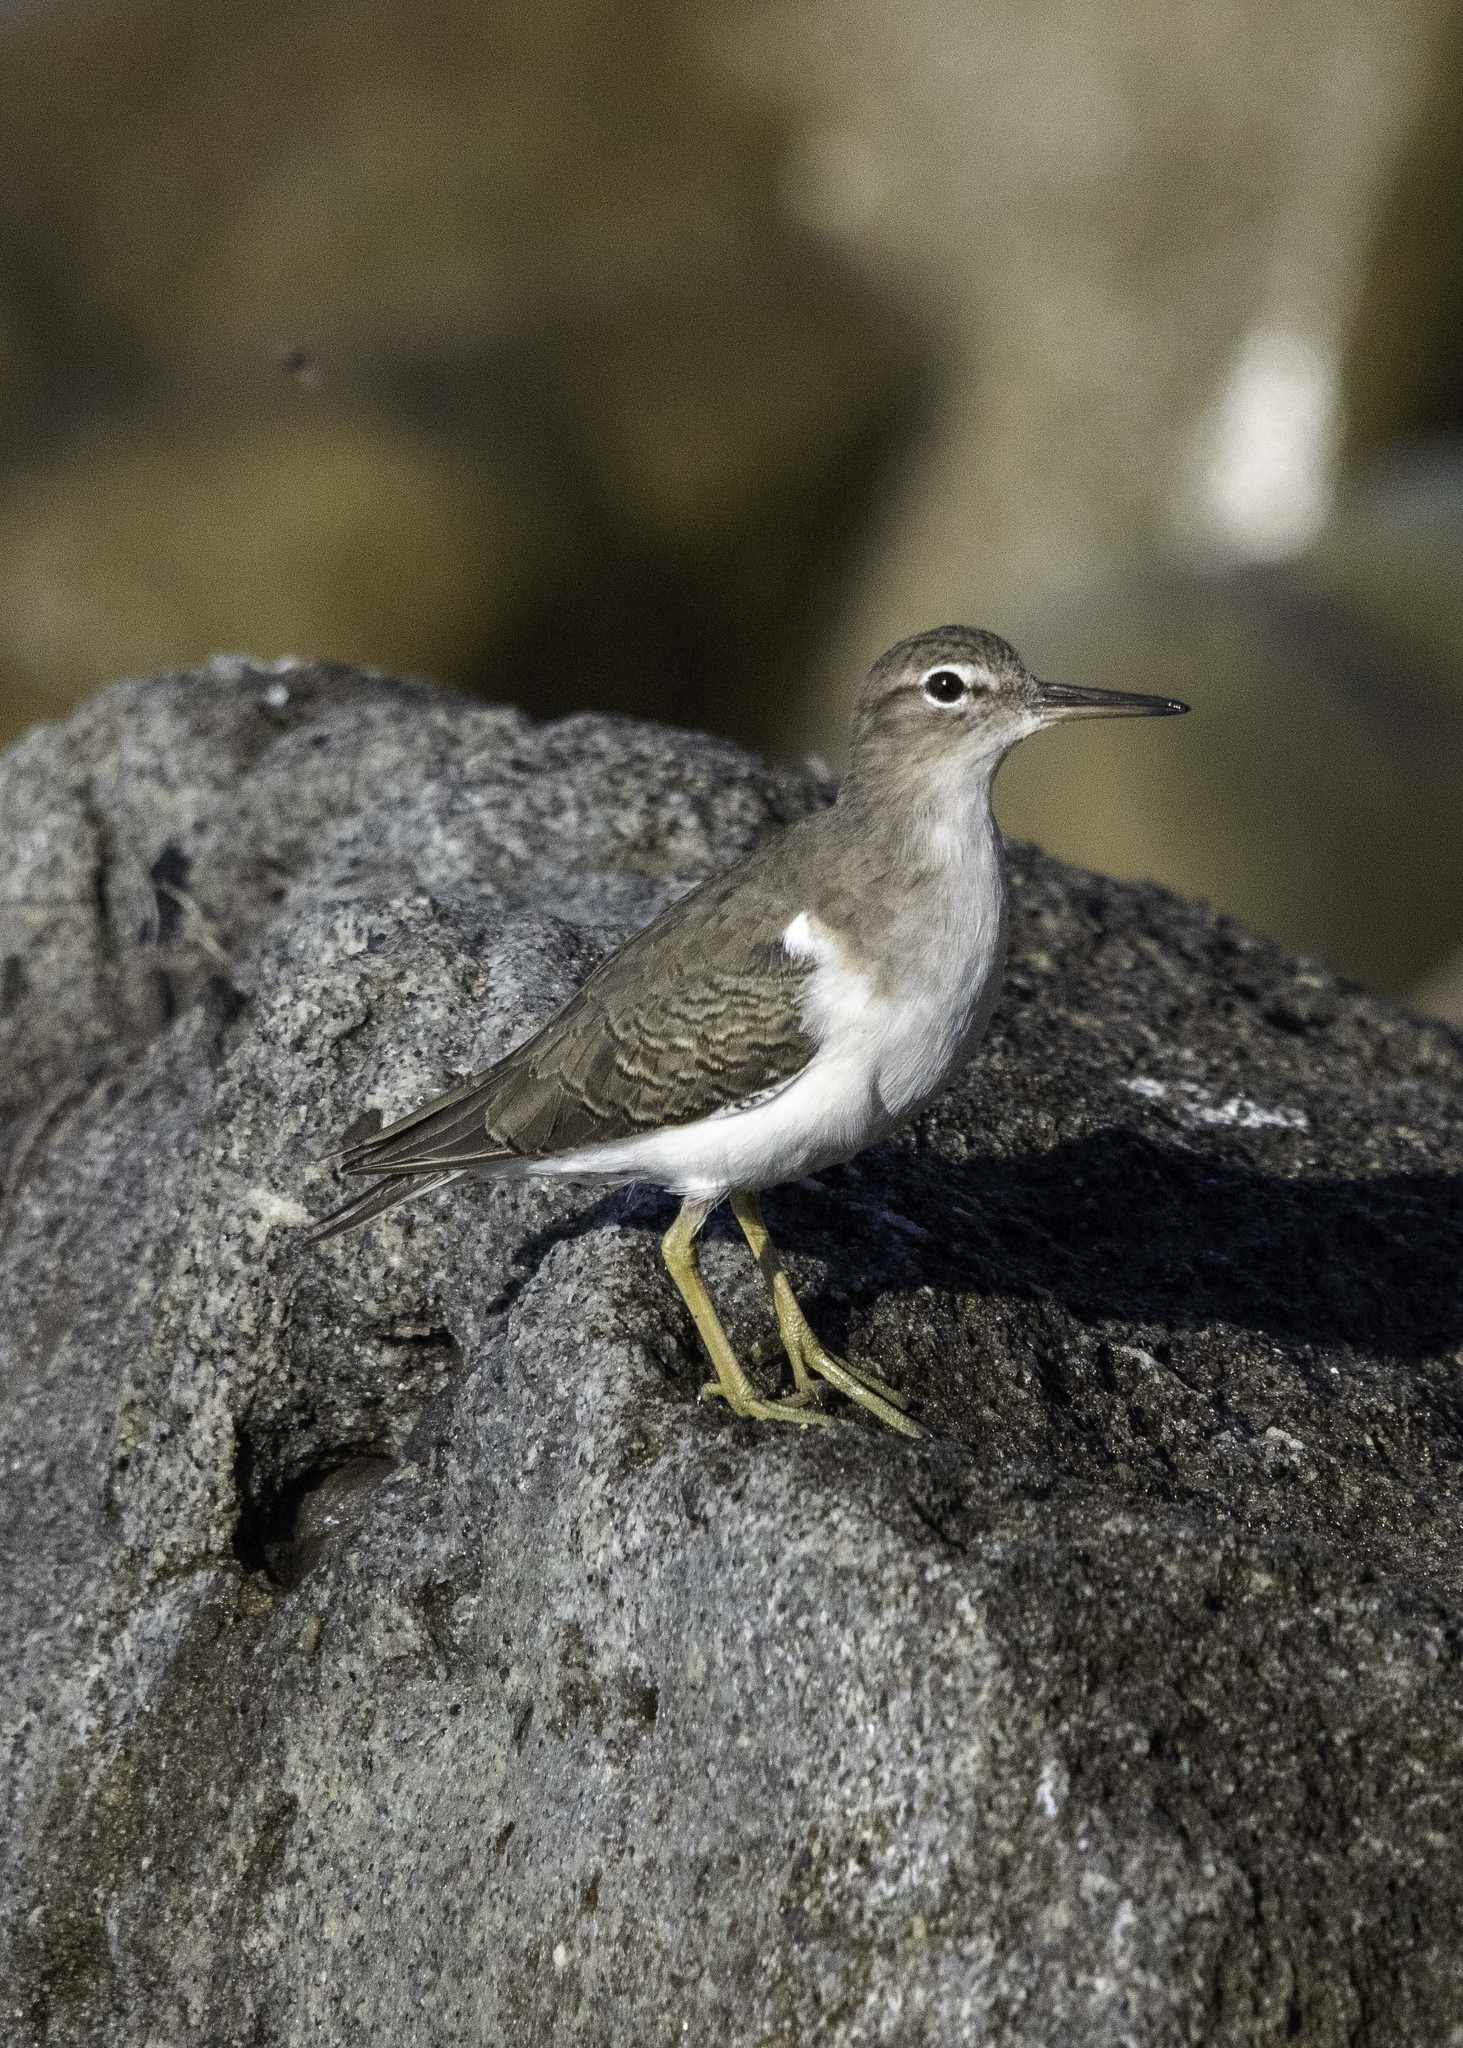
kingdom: Animalia
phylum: Chordata
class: Aves
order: Charadriiformes
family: Scolopacidae
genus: Actitis
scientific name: Actitis macularius
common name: Spotted sandpiper
